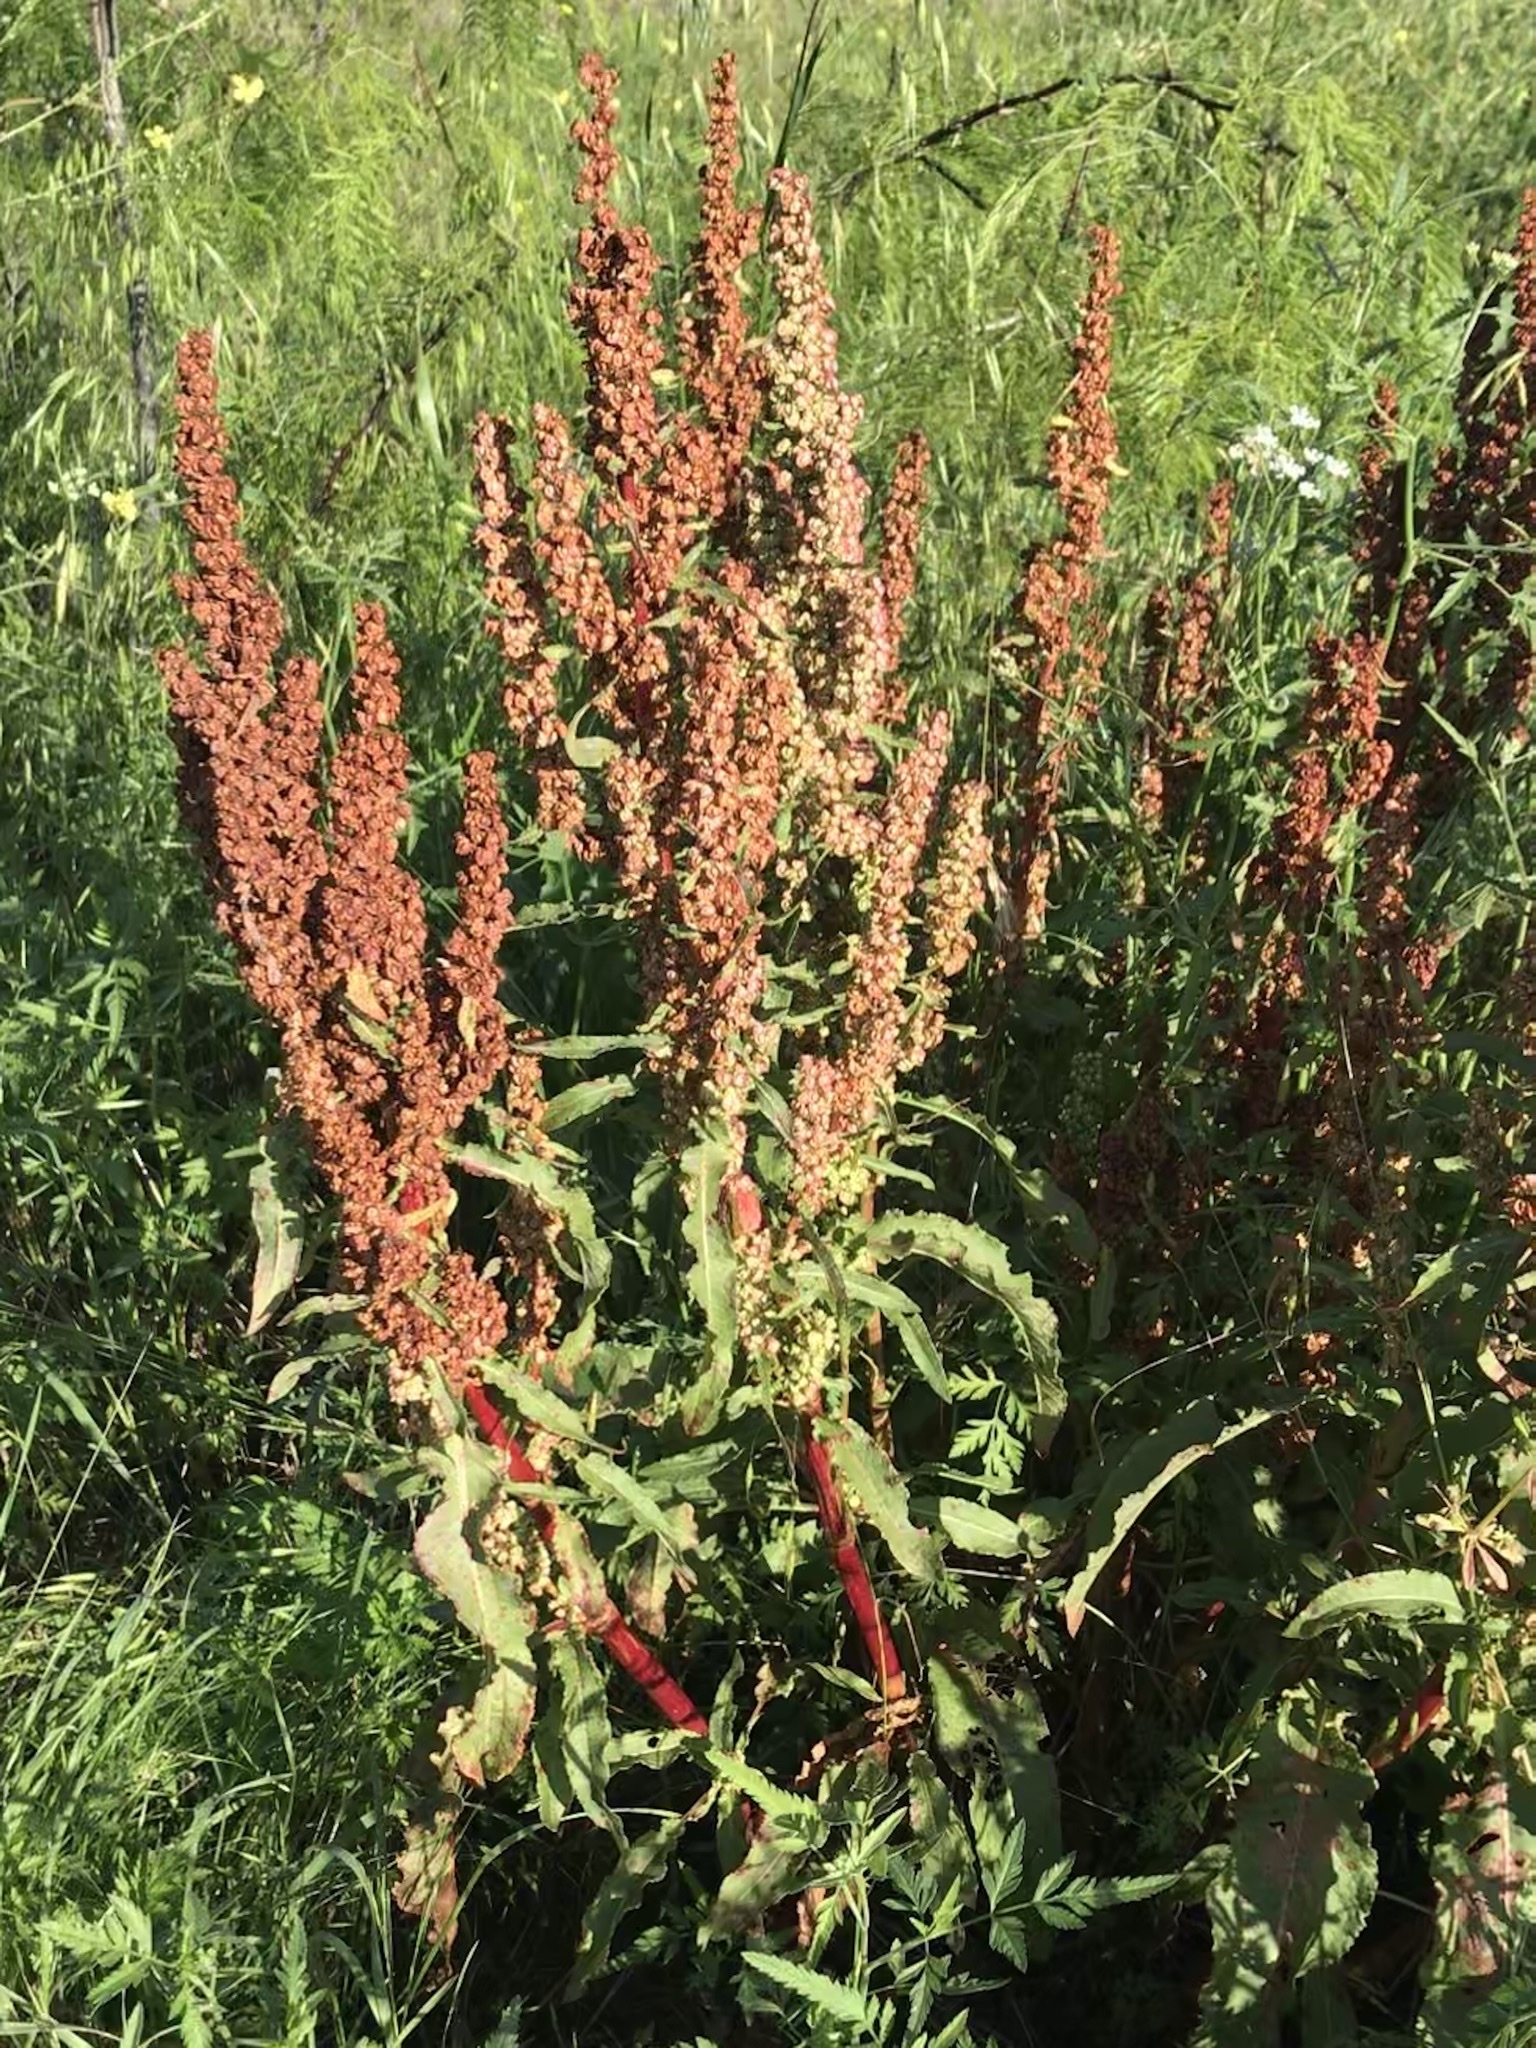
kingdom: Plantae
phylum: Tracheophyta
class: Magnoliopsida
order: Caryophyllales
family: Polygonaceae
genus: Rumex
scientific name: Rumex crispus
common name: Curled dock
